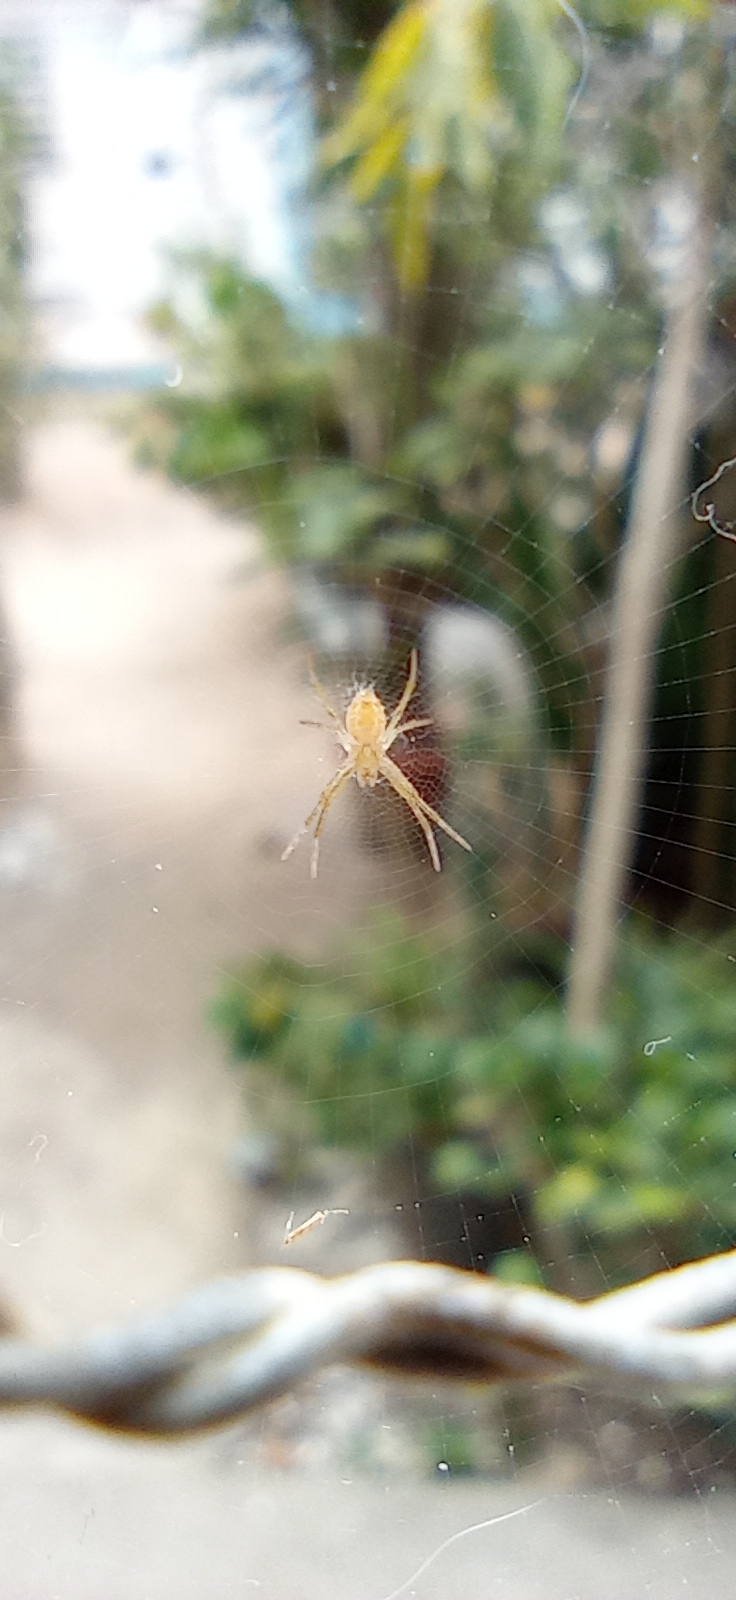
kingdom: Animalia
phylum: Arthropoda
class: Arachnida
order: Araneae
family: Araneidae
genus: Argiope
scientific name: Argiope argentata
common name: Orb weavers
